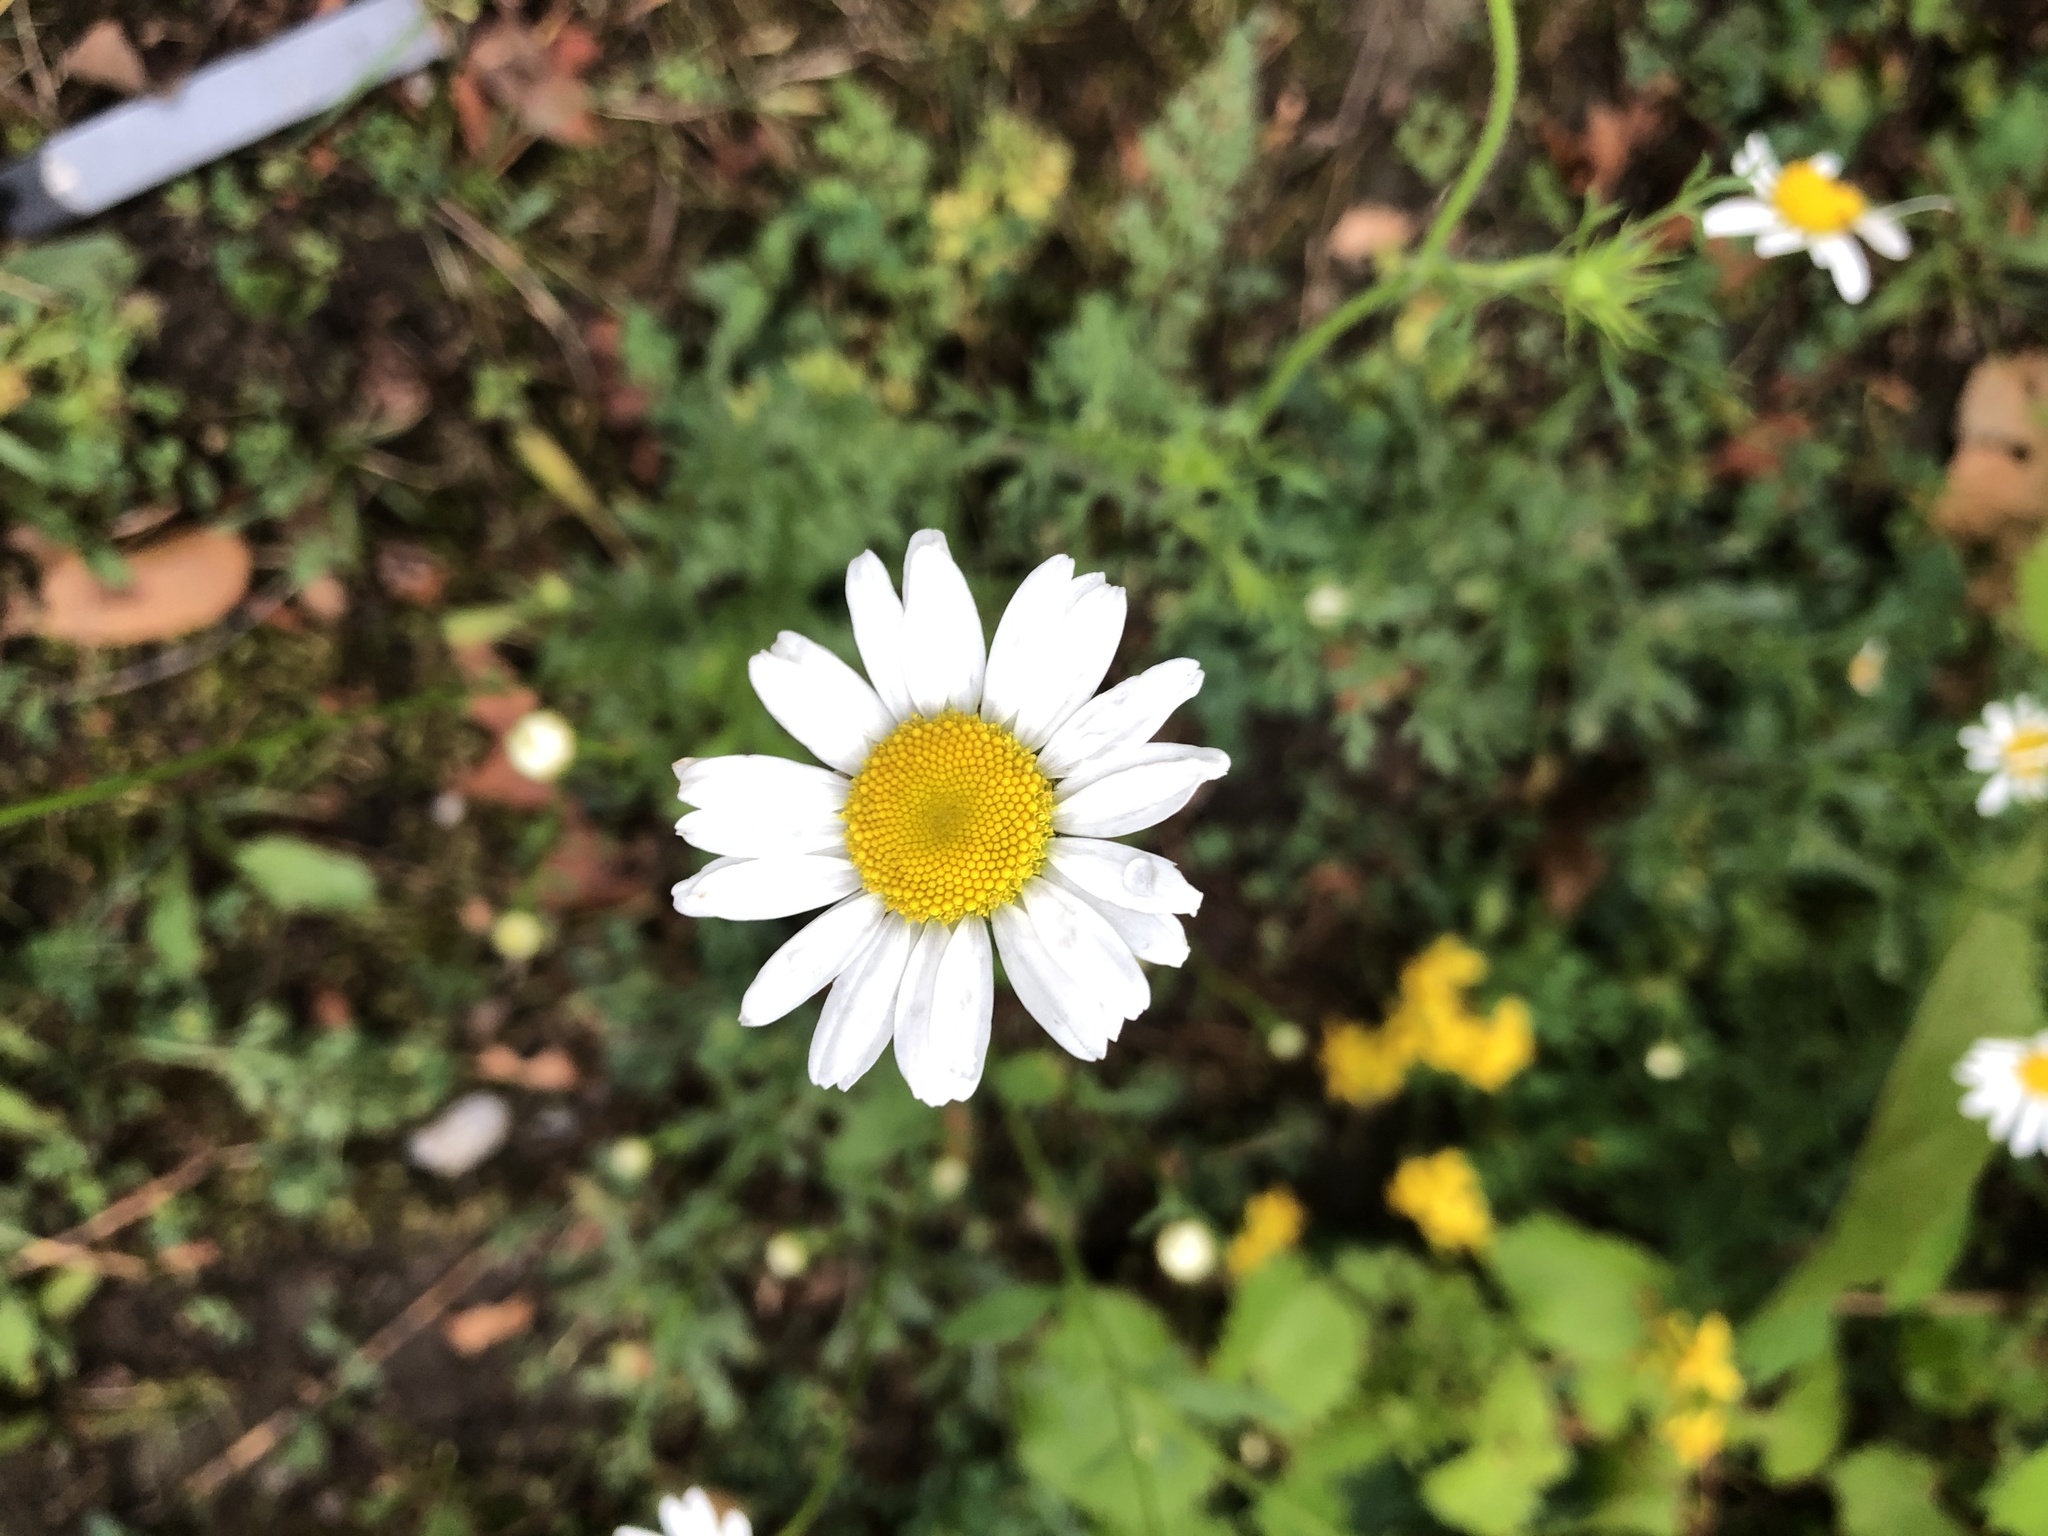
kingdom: Plantae
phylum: Tracheophyta
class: Magnoliopsida
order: Asterales
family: Asteraceae
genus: Leucanthemum
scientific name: Leucanthemum vulgare
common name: Oxeye daisy
